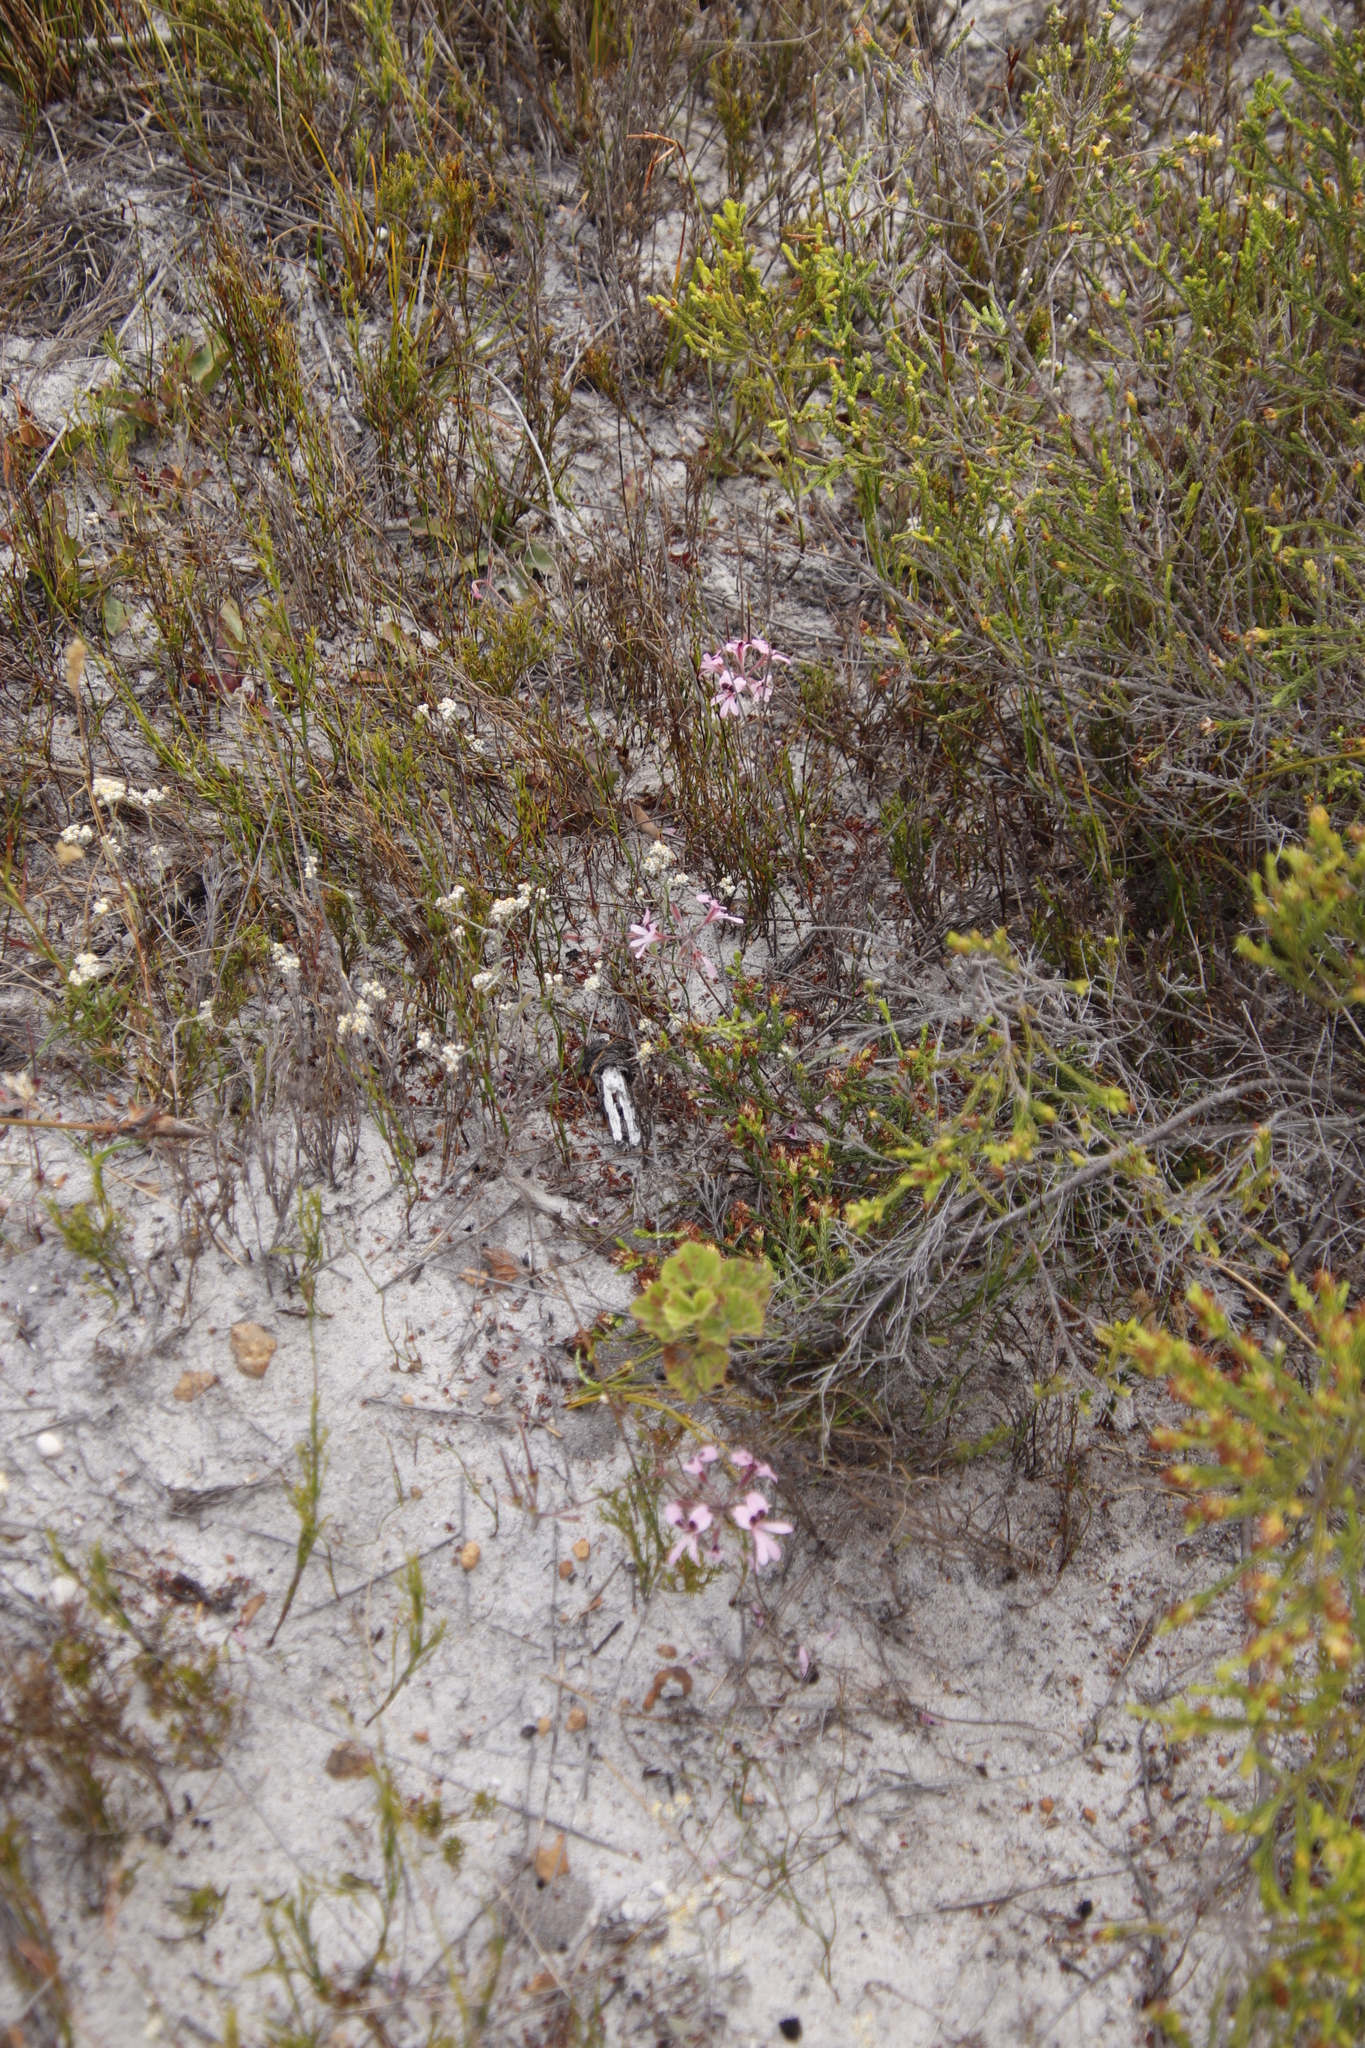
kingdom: Plantae
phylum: Tracheophyta
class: Magnoliopsida
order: Geraniales
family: Geraniaceae
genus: Pelargonium
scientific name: Pelargonium psammophilum
